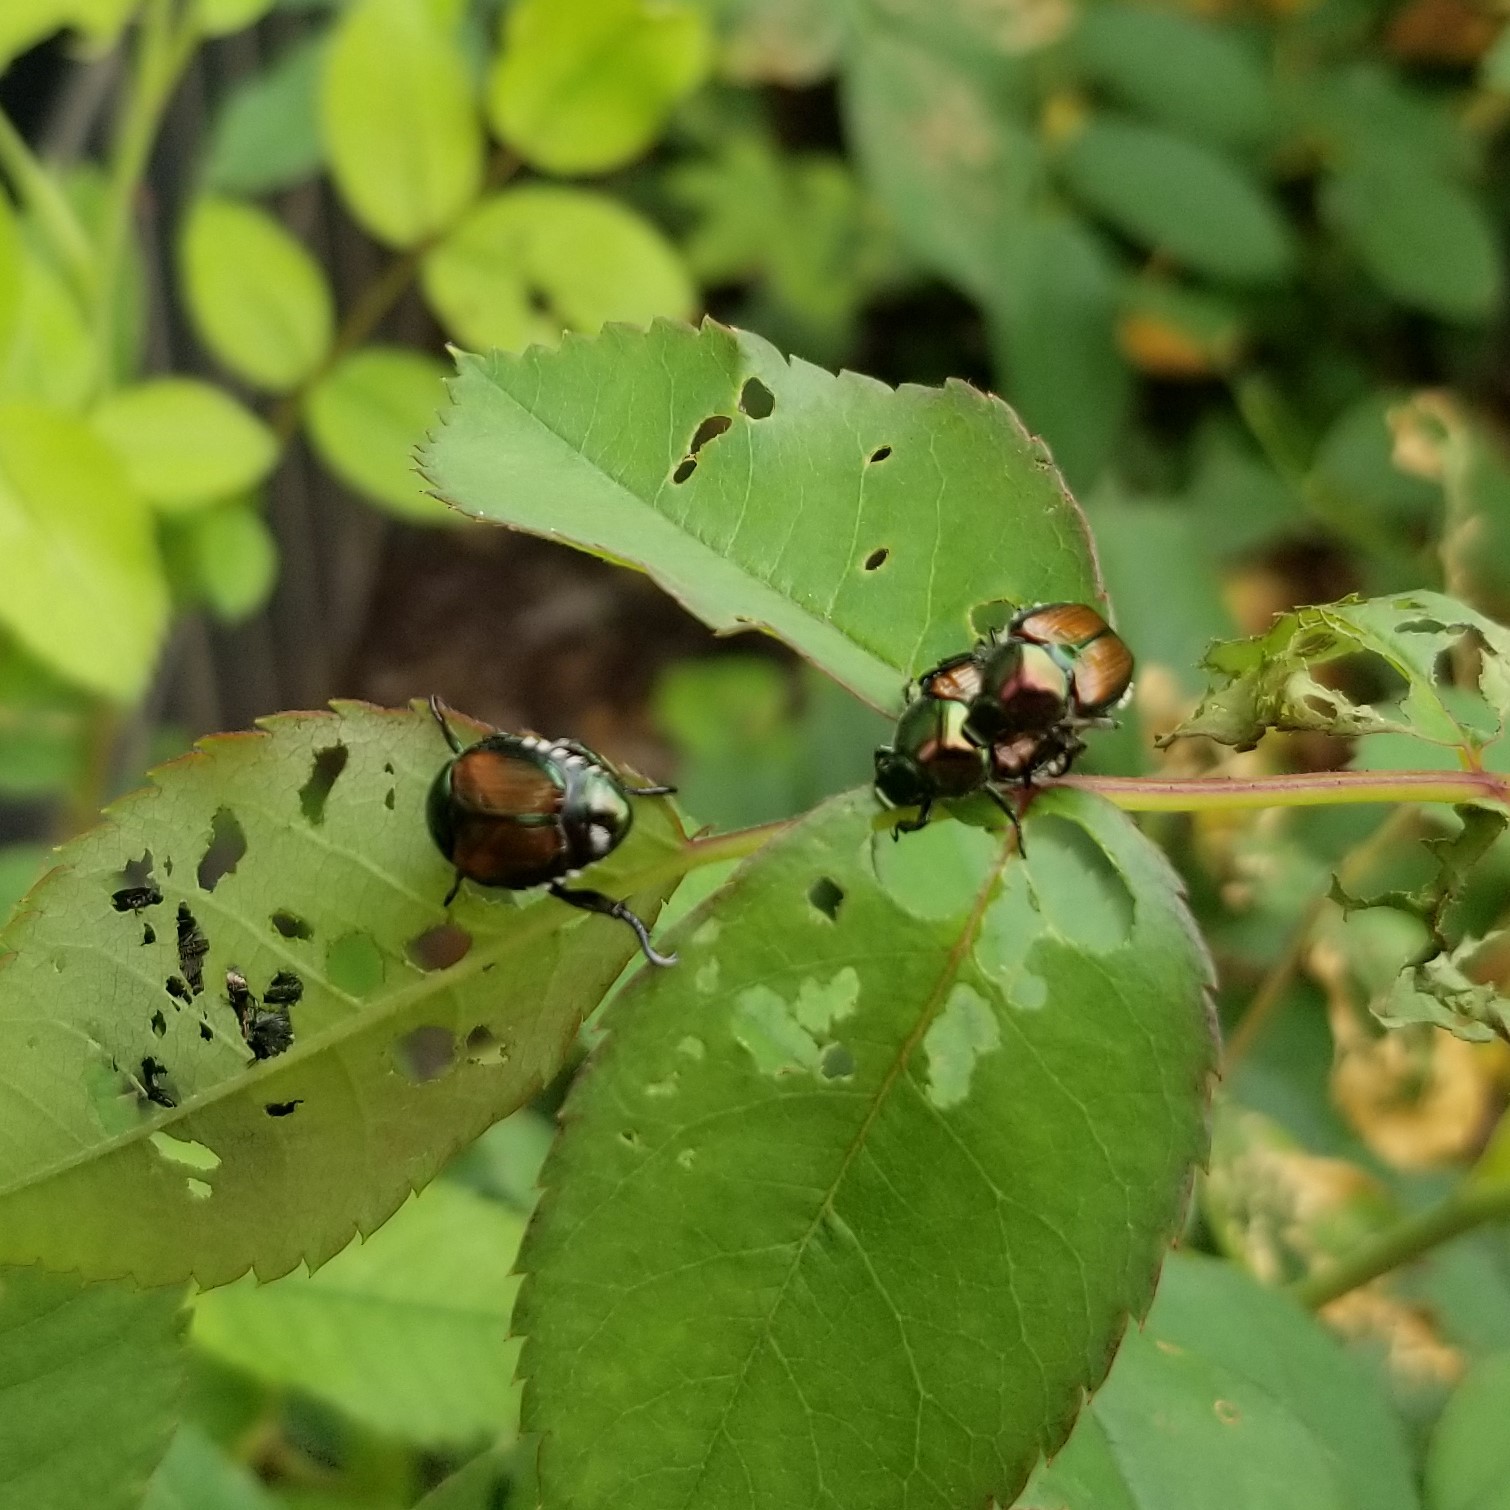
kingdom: Animalia
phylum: Arthropoda
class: Insecta
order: Coleoptera
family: Scarabaeidae
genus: Popillia
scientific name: Popillia japonica
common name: Japanese beetle
